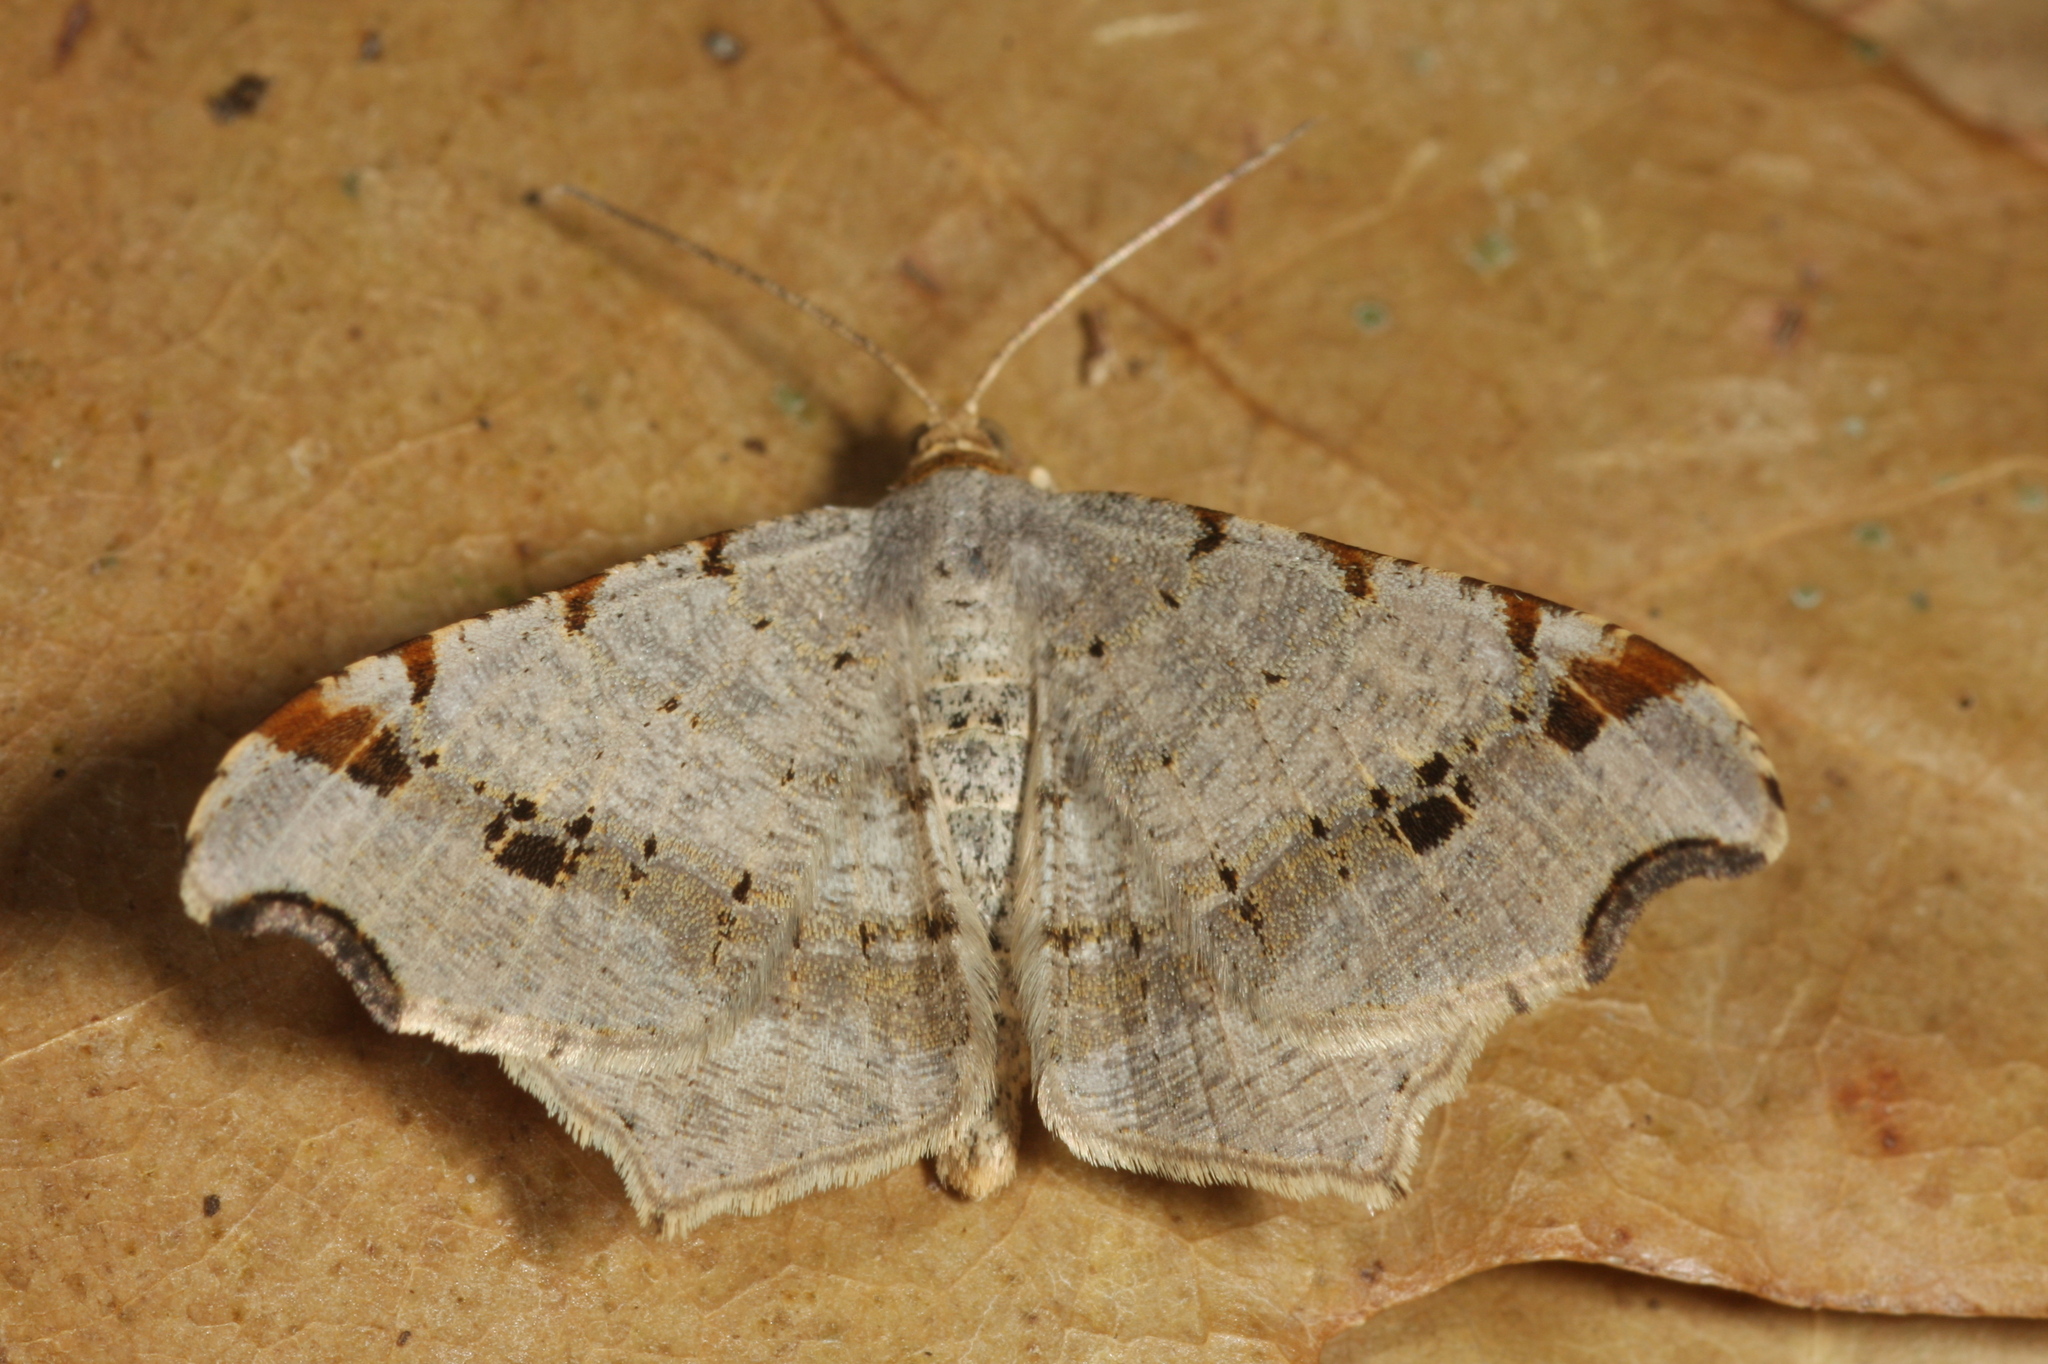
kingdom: Animalia
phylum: Arthropoda
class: Insecta
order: Lepidoptera
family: Geometridae
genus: Macaria
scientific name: Macaria alternata
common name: Sharp-angled peacock
